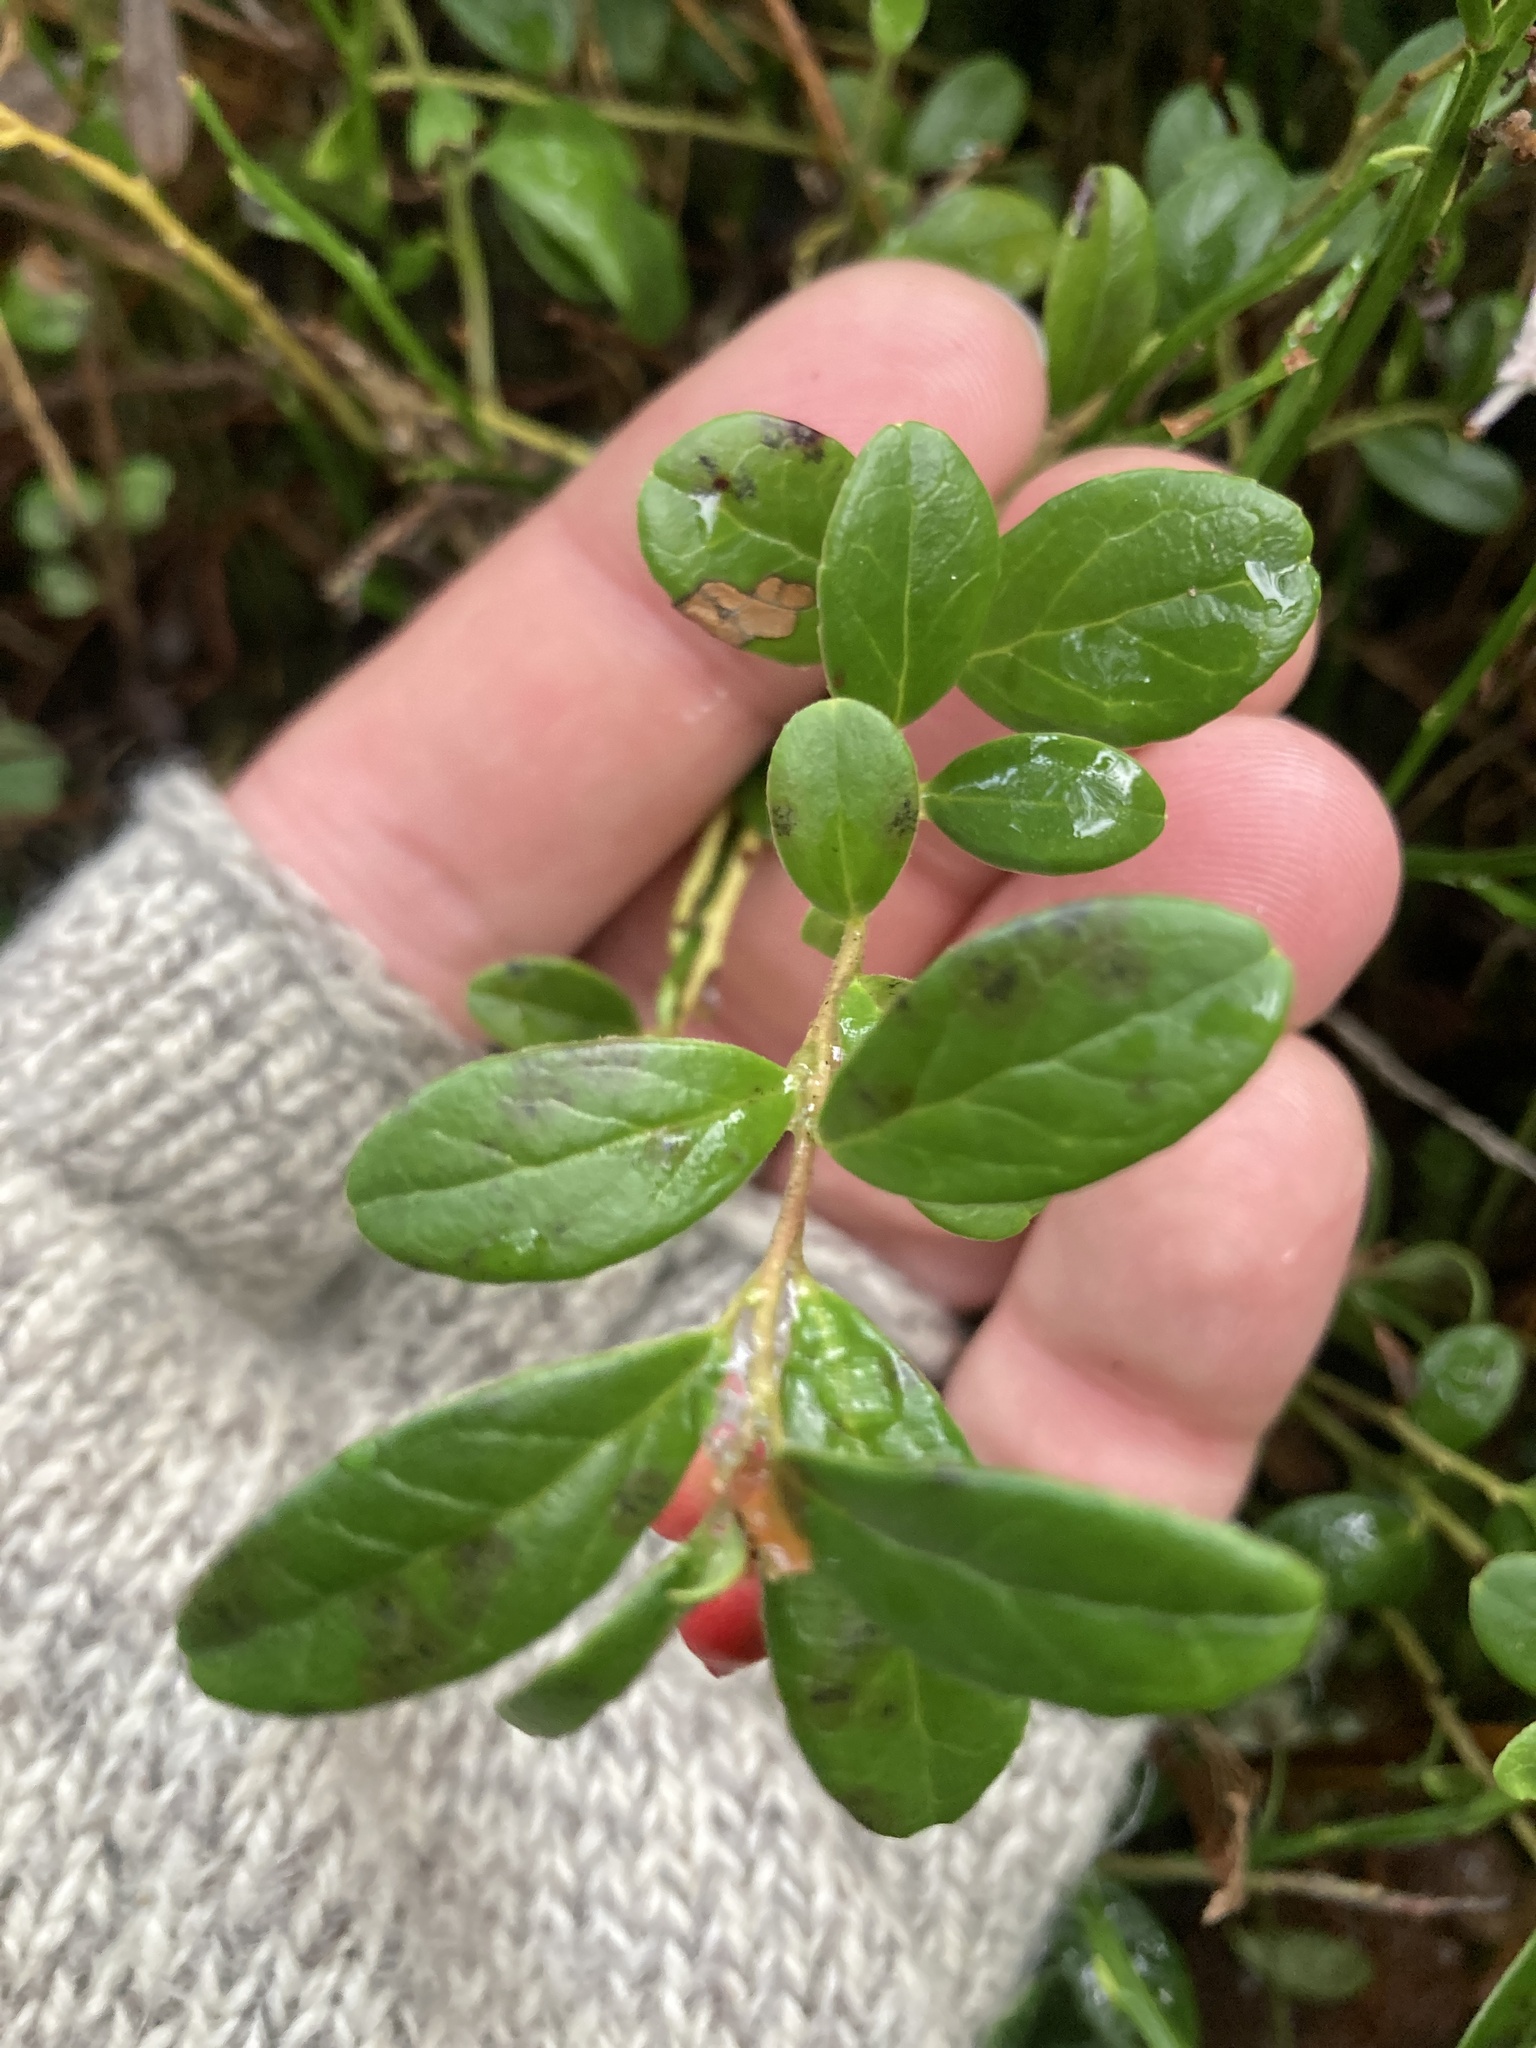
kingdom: Plantae
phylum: Tracheophyta
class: Magnoliopsida
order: Ericales
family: Ericaceae
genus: Vaccinium
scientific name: Vaccinium vitis-idaea
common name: Cowberry
